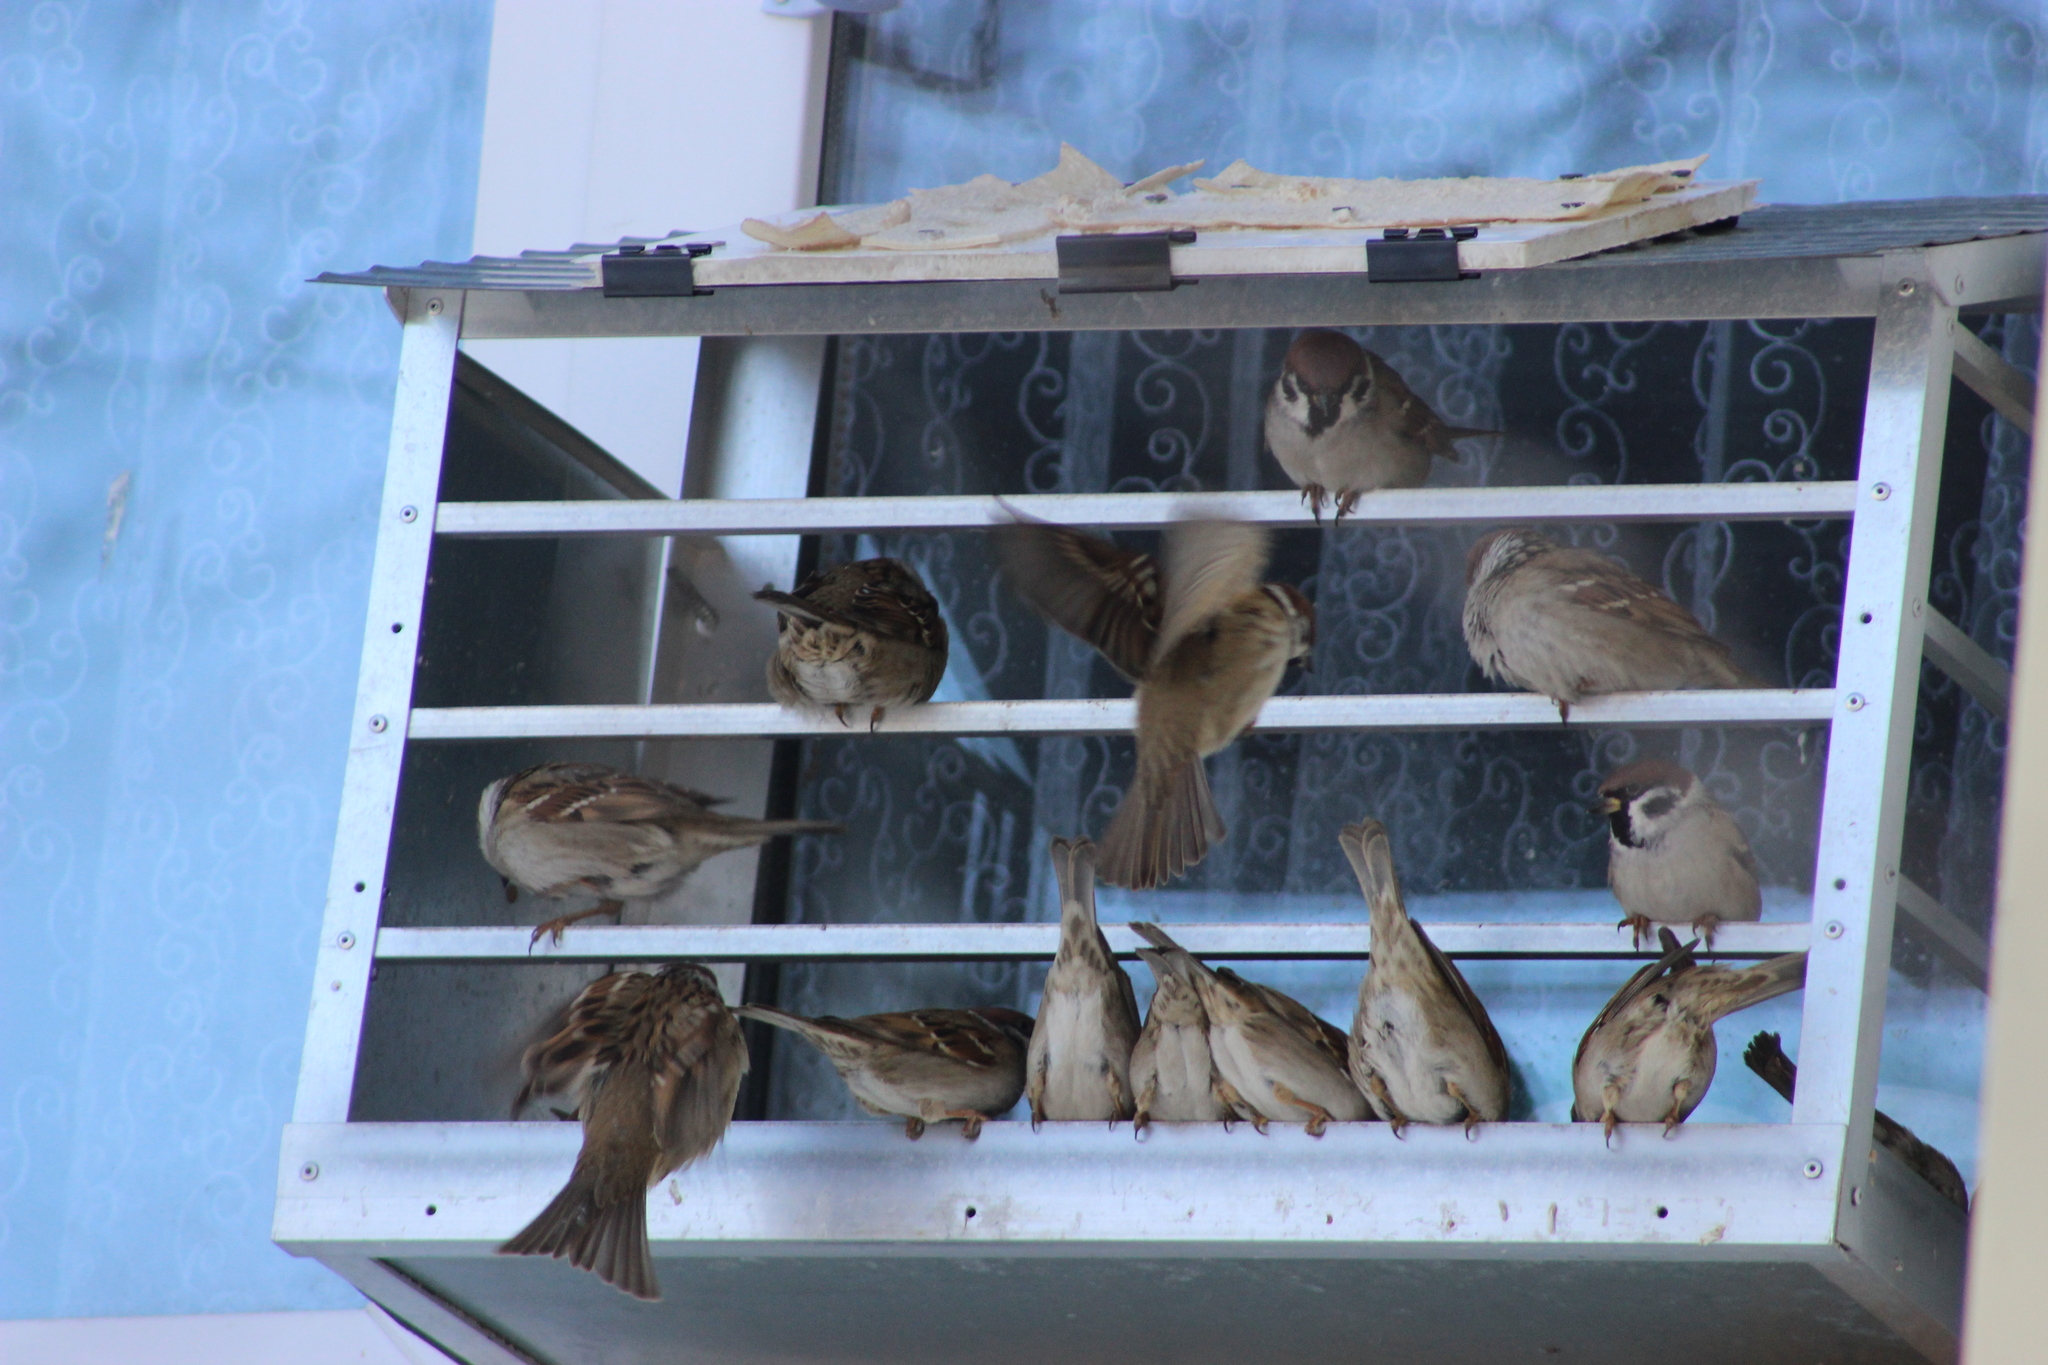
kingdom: Animalia
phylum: Chordata
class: Aves
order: Passeriformes
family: Passeridae
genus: Passer
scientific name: Passer montanus
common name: Eurasian tree sparrow
